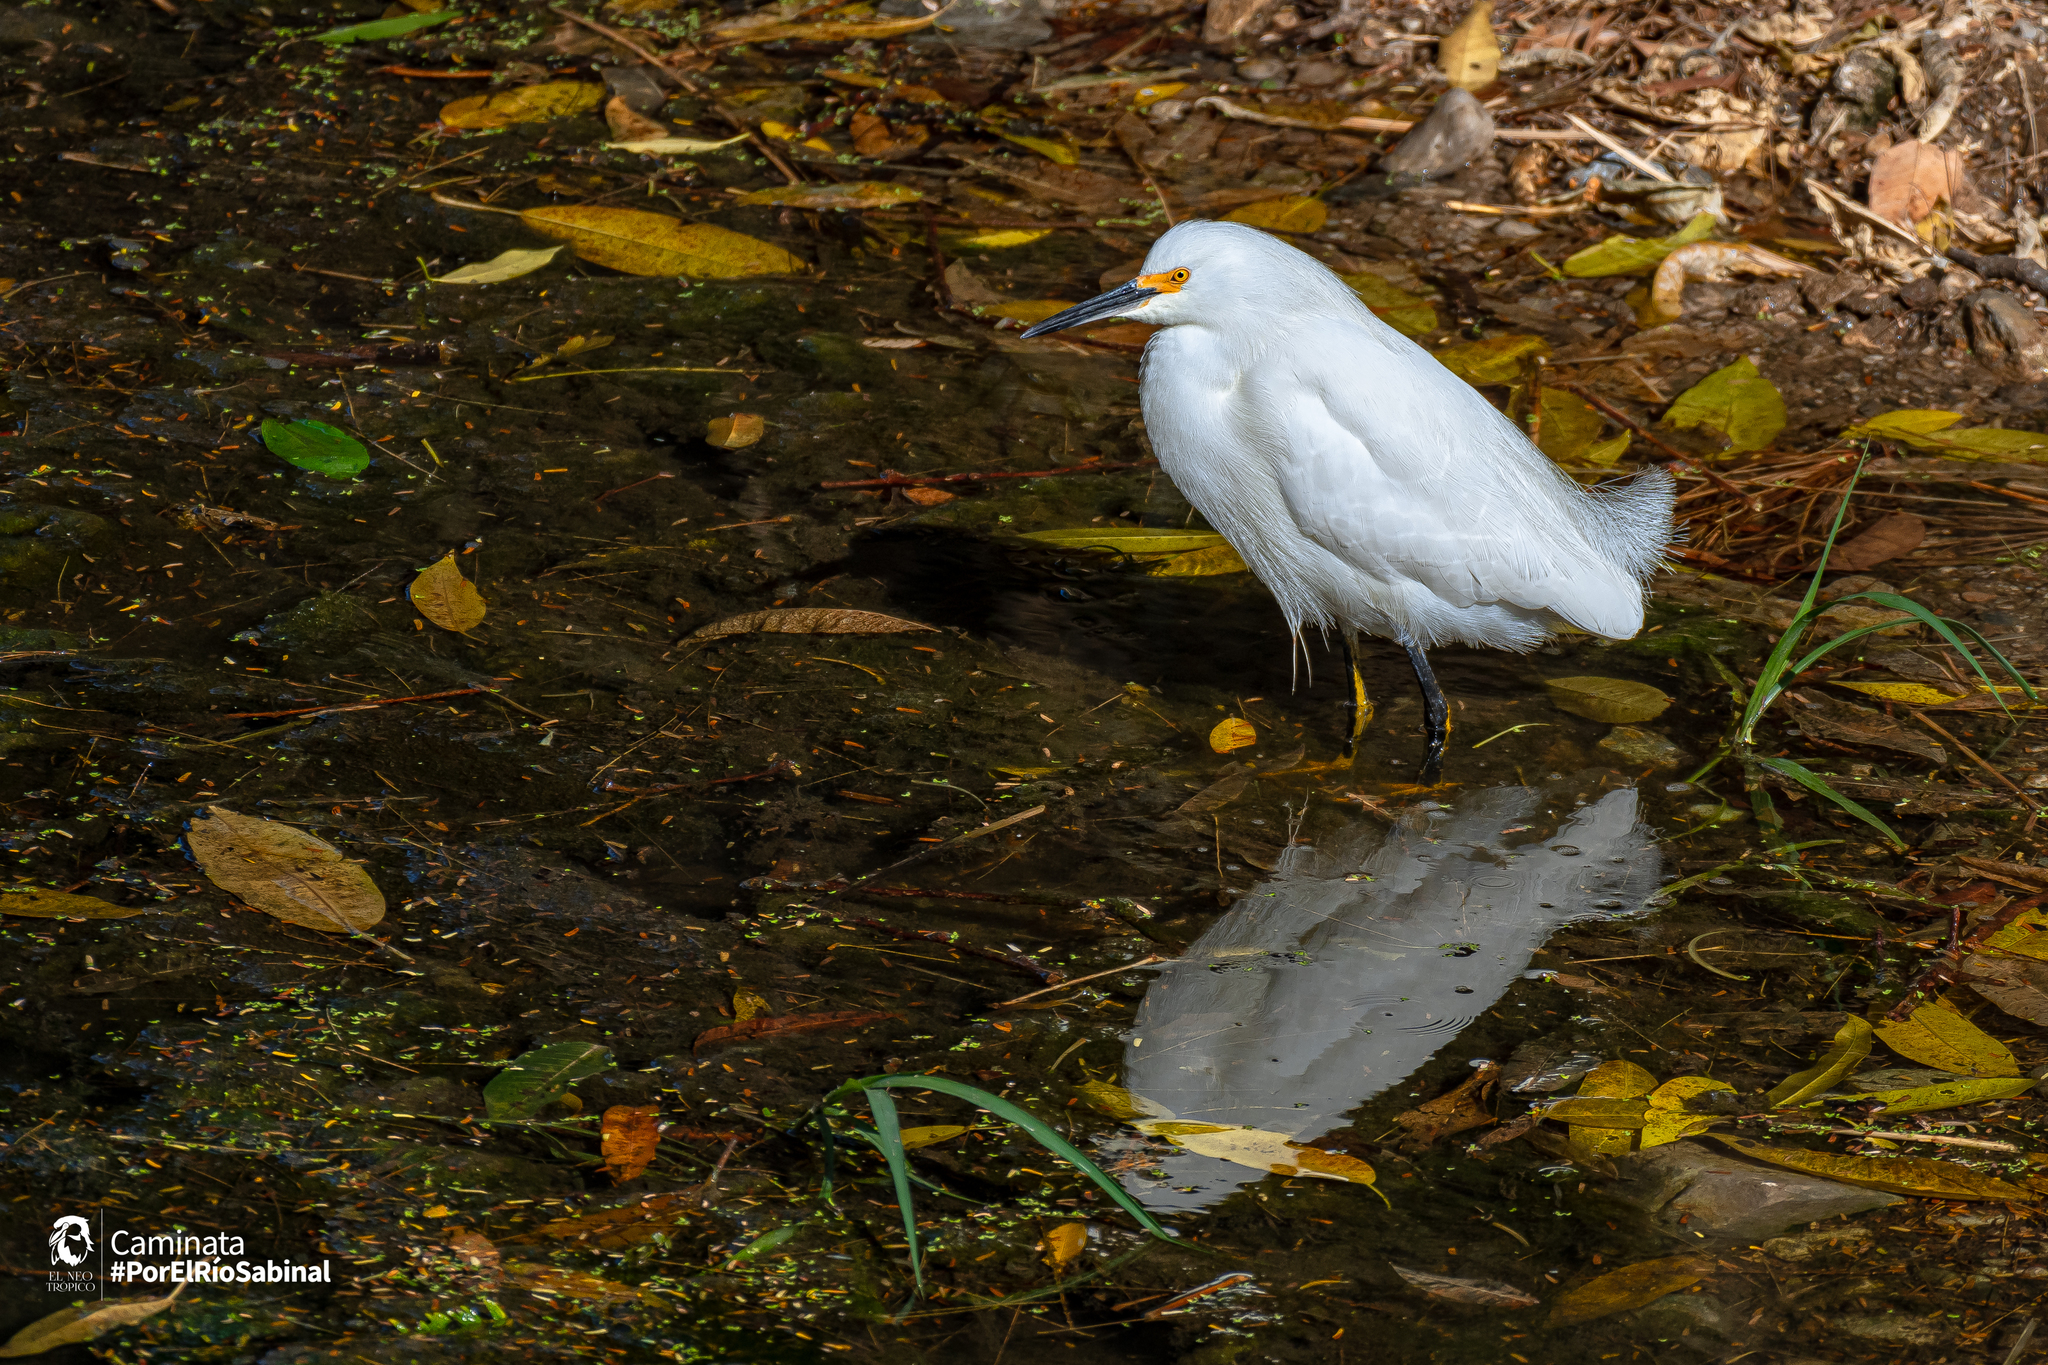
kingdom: Animalia
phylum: Chordata
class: Aves
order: Pelecaniformes
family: Ardeidae
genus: Egretta
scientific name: Egretta thula
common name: Snowy egret
